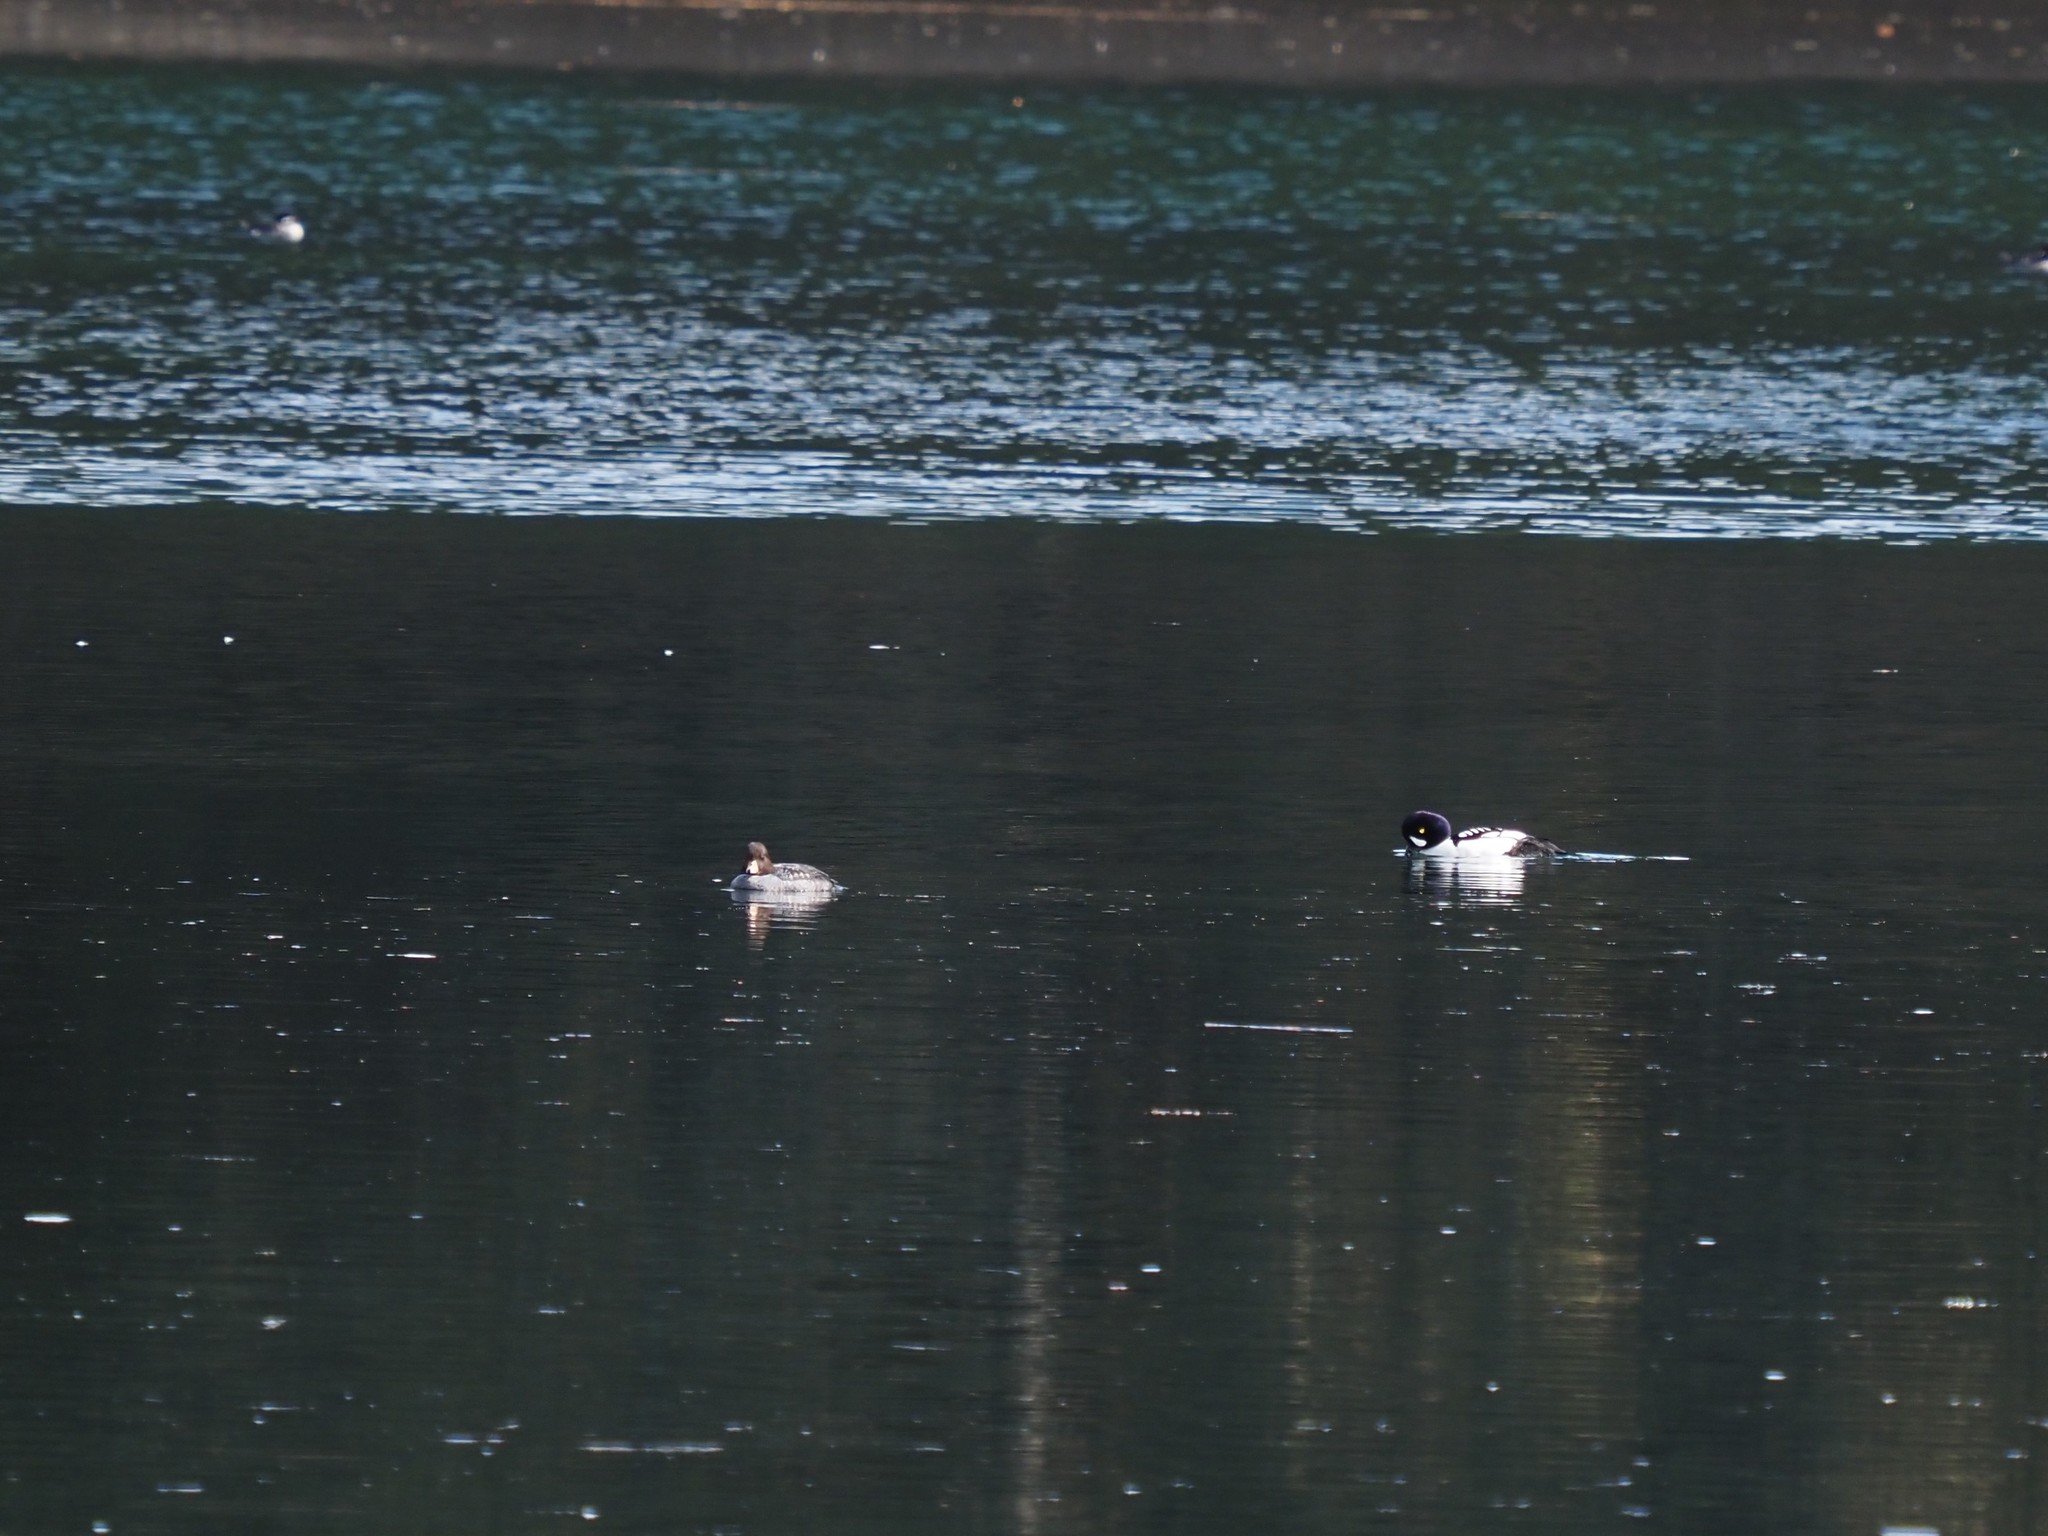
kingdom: Animalia
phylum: Chordata
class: Aves
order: Anseriformes
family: Anatidae
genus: Bucephala
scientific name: Bucephala islandica
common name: Barrow's goldeneye
